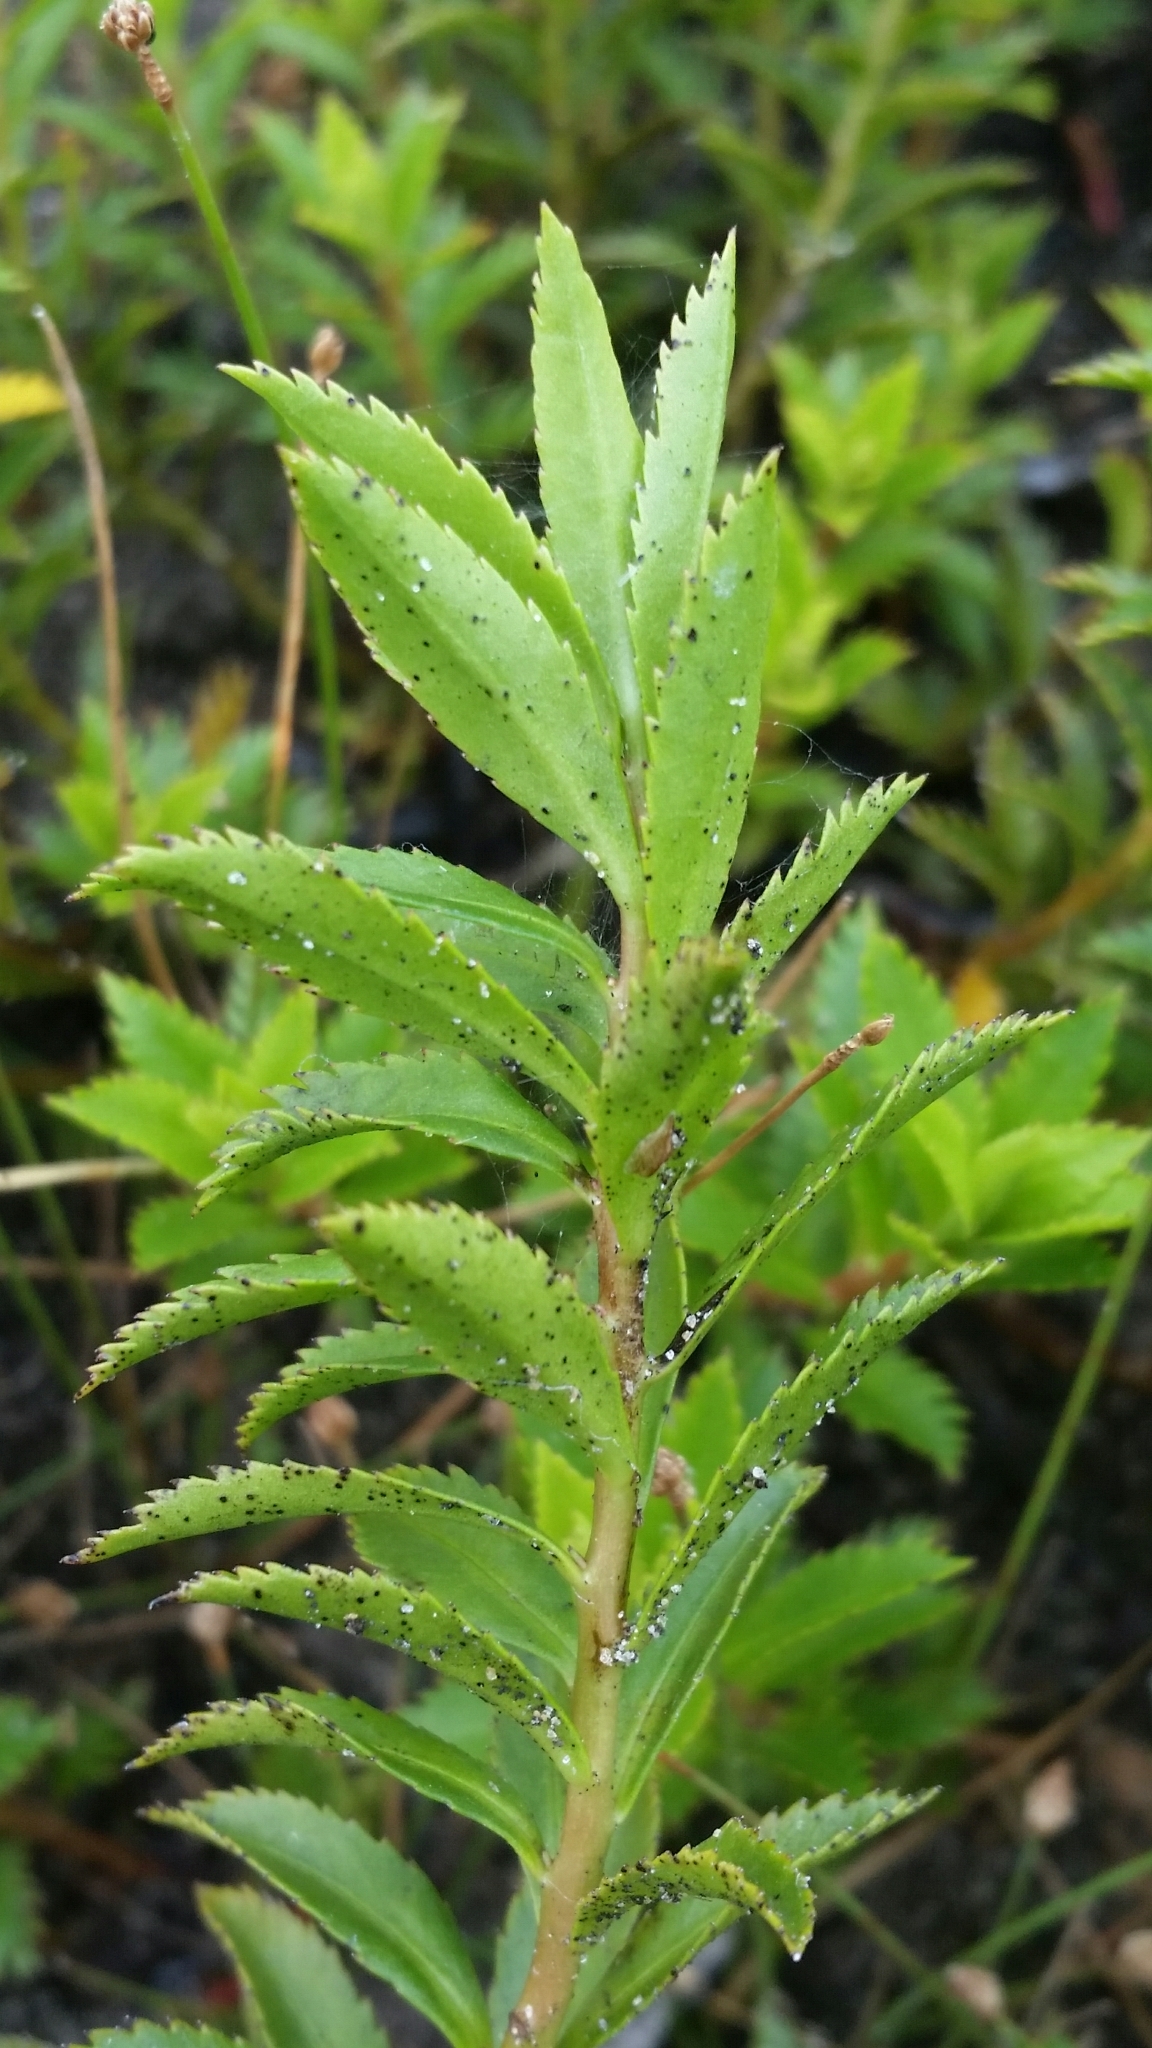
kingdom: Plantae
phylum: Tracheophyta
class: Magnoliopsida
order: Saxifragales
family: Haloragaceae
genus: Proserpinaca
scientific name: Proserpinaca palustris
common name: Marsh mermaidweed
